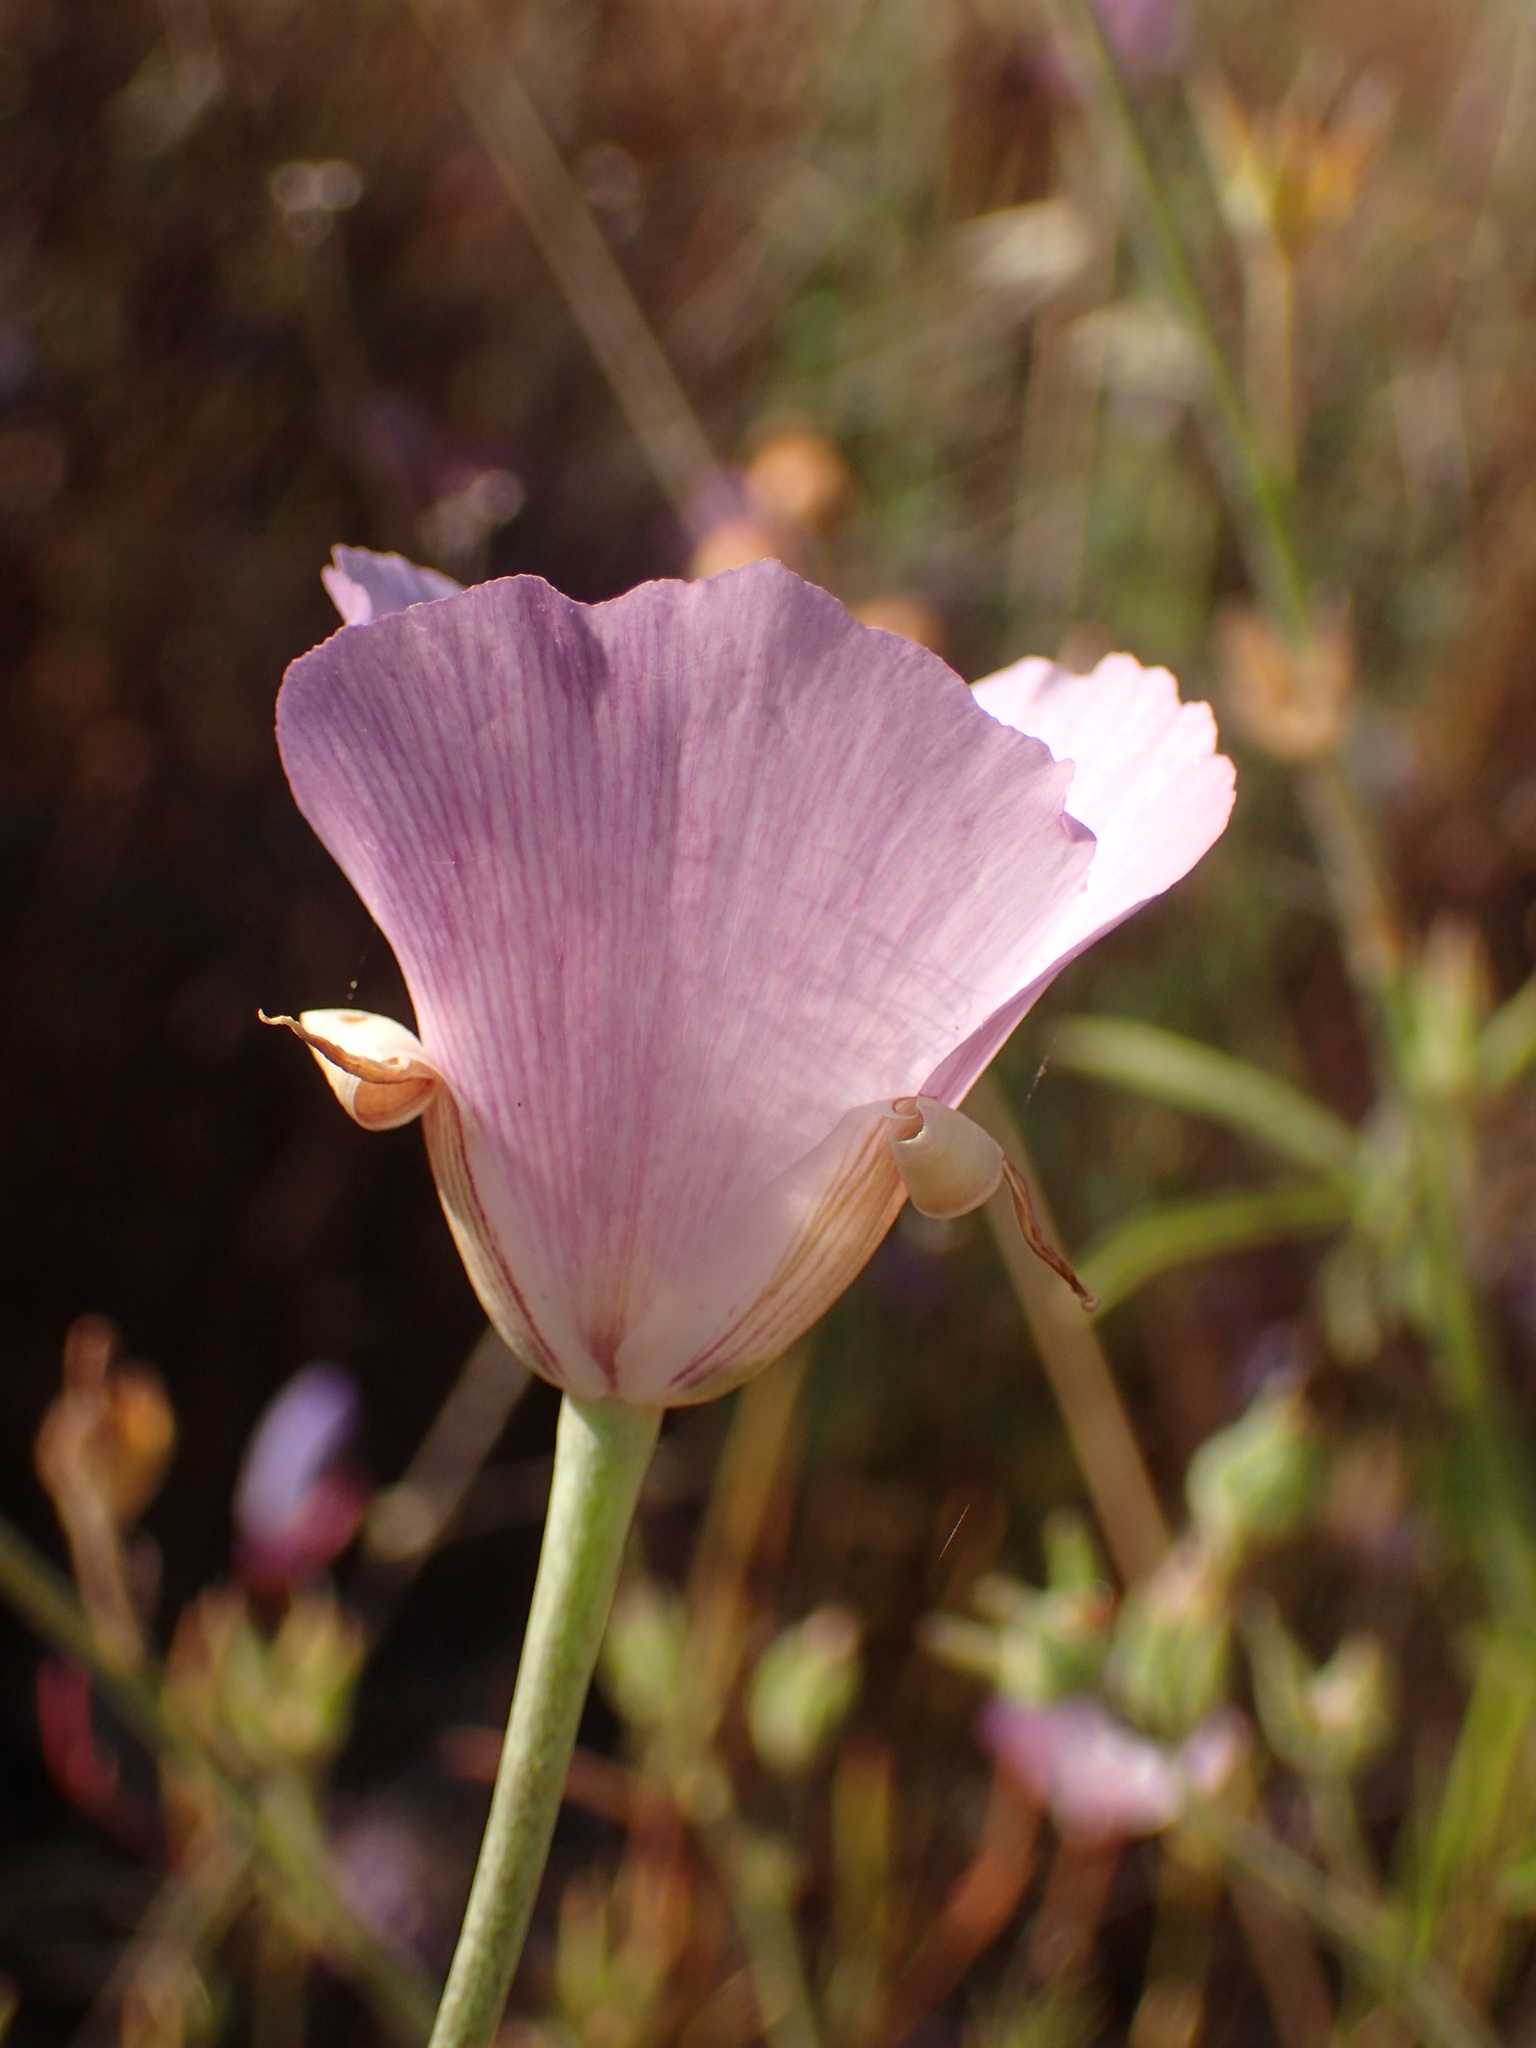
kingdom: Plantae
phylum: Tracheophyta
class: Liliopsida
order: Liliales
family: Liliaceae
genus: Calochortus
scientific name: Calochortus splendens
